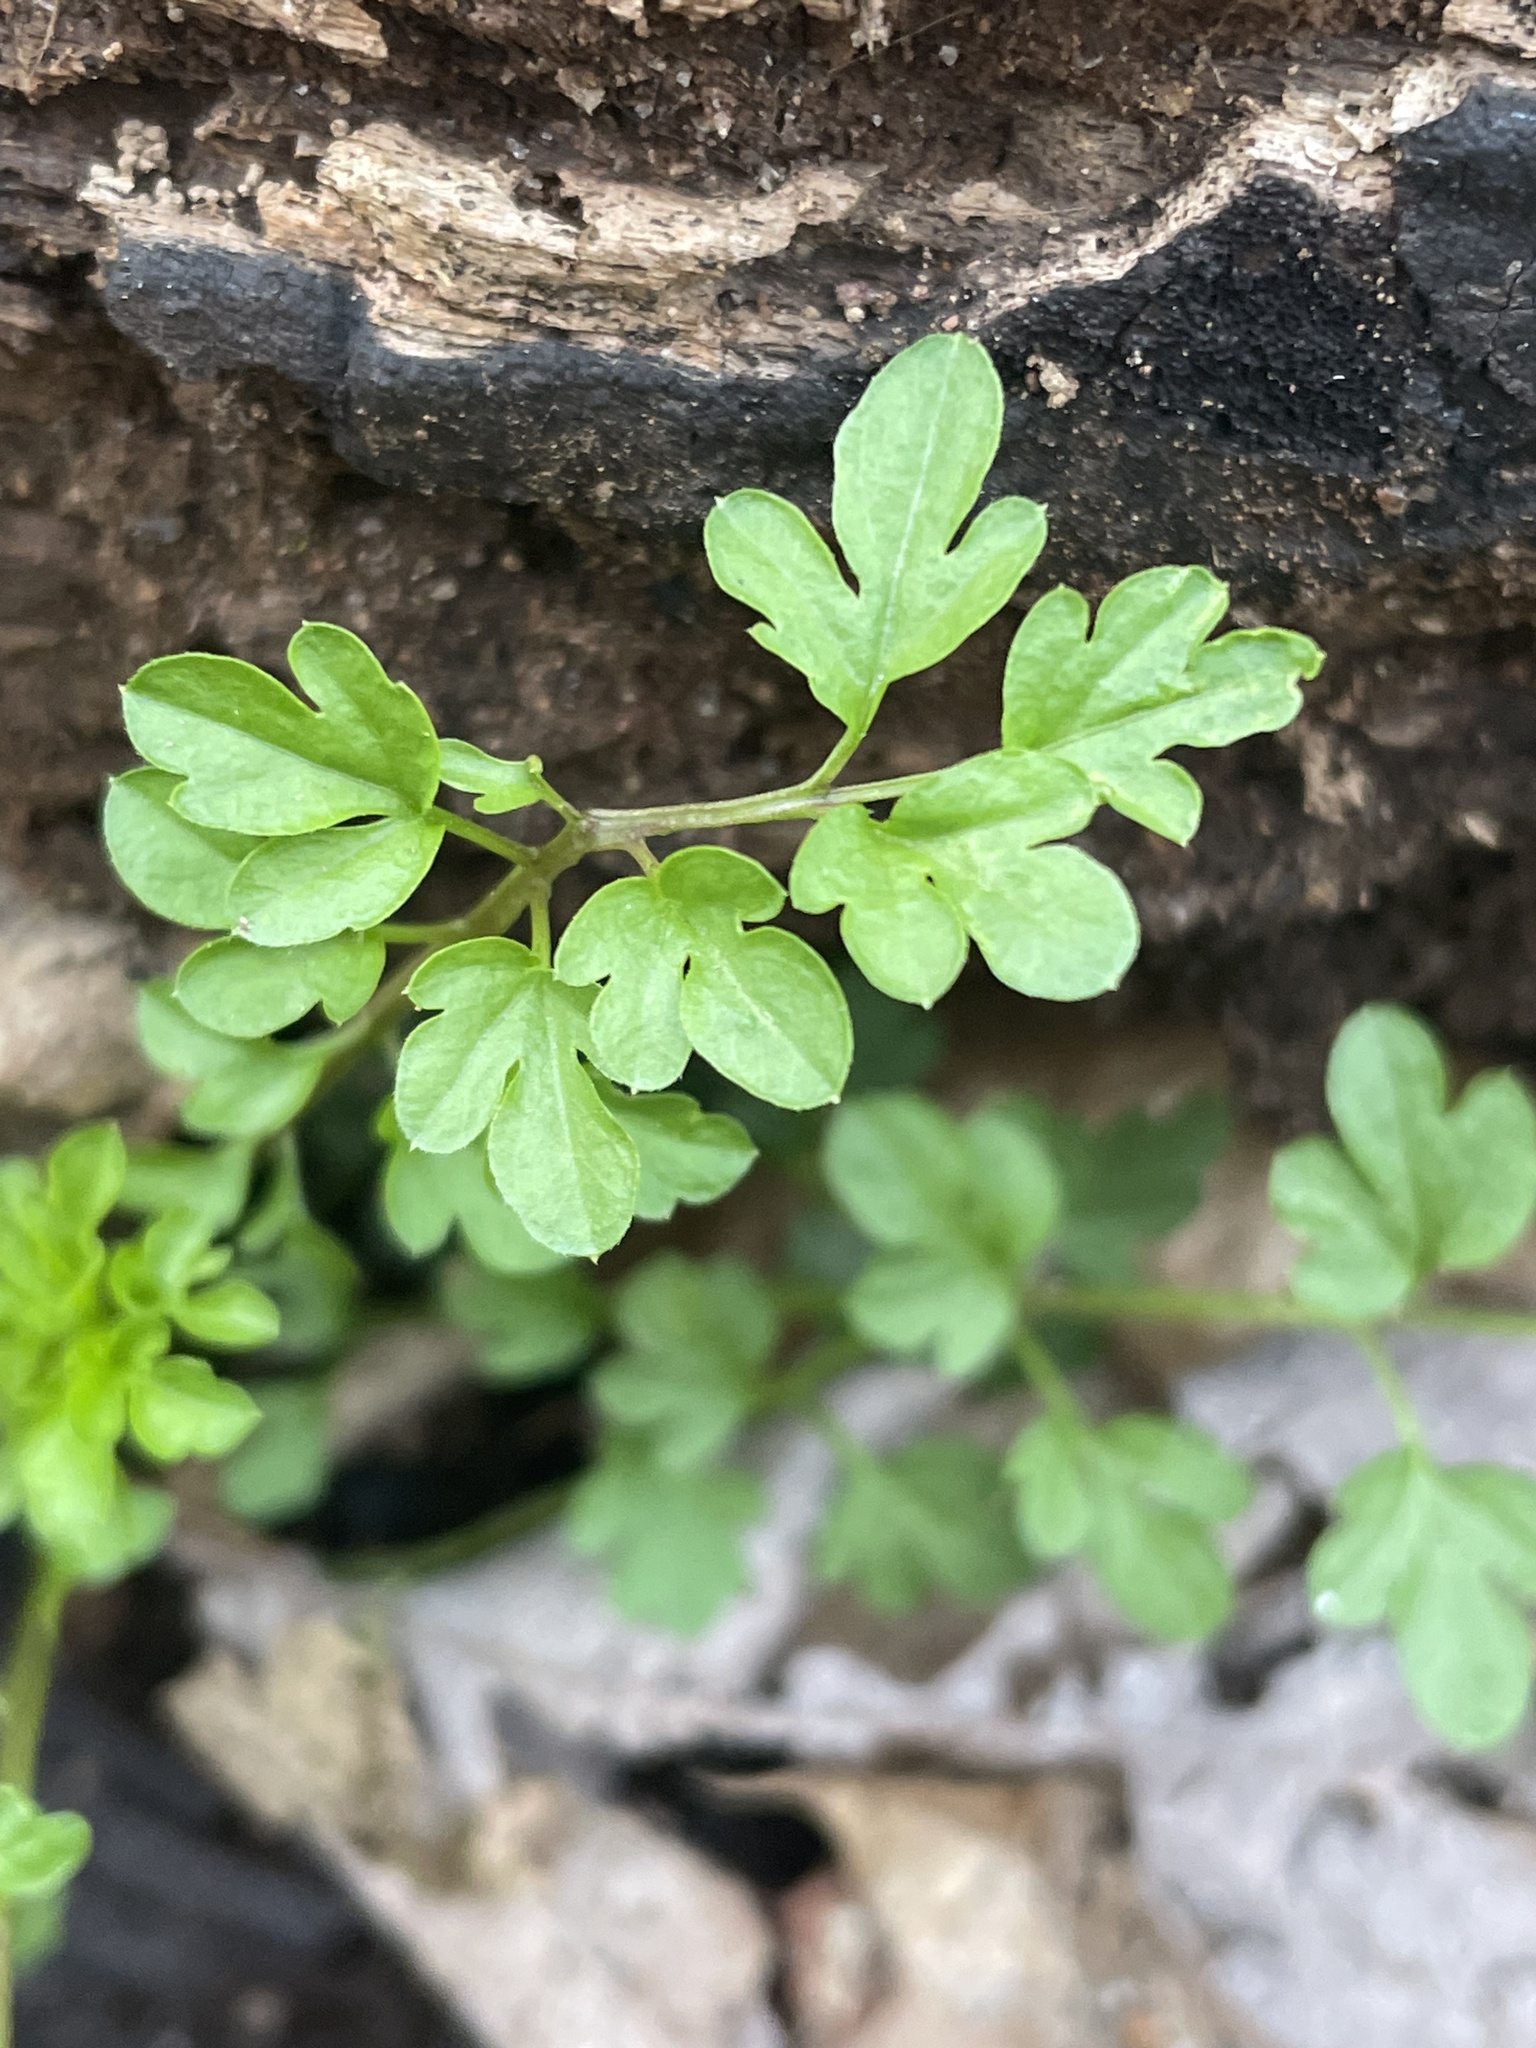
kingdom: Plantae
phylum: Tracheophyta
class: Magnoliopsida
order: Brassicales
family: Brassicaceae
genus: Cardamine
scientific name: Cardamine impatiens
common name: Narrow-leaved bitter-cress
